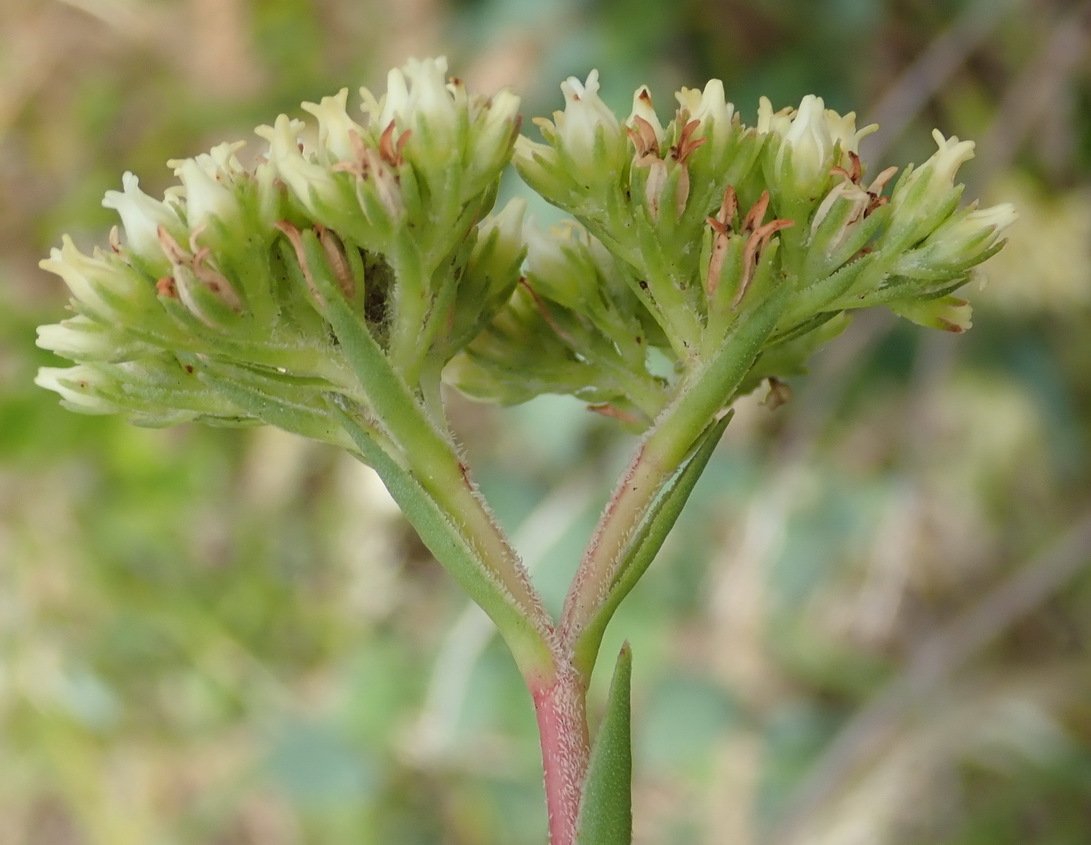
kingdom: Plantae
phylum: Tracheophyta
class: Magnoliopsida
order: Saxifragales
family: Crassulaceae
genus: Crassula
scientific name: Crassula subulata
